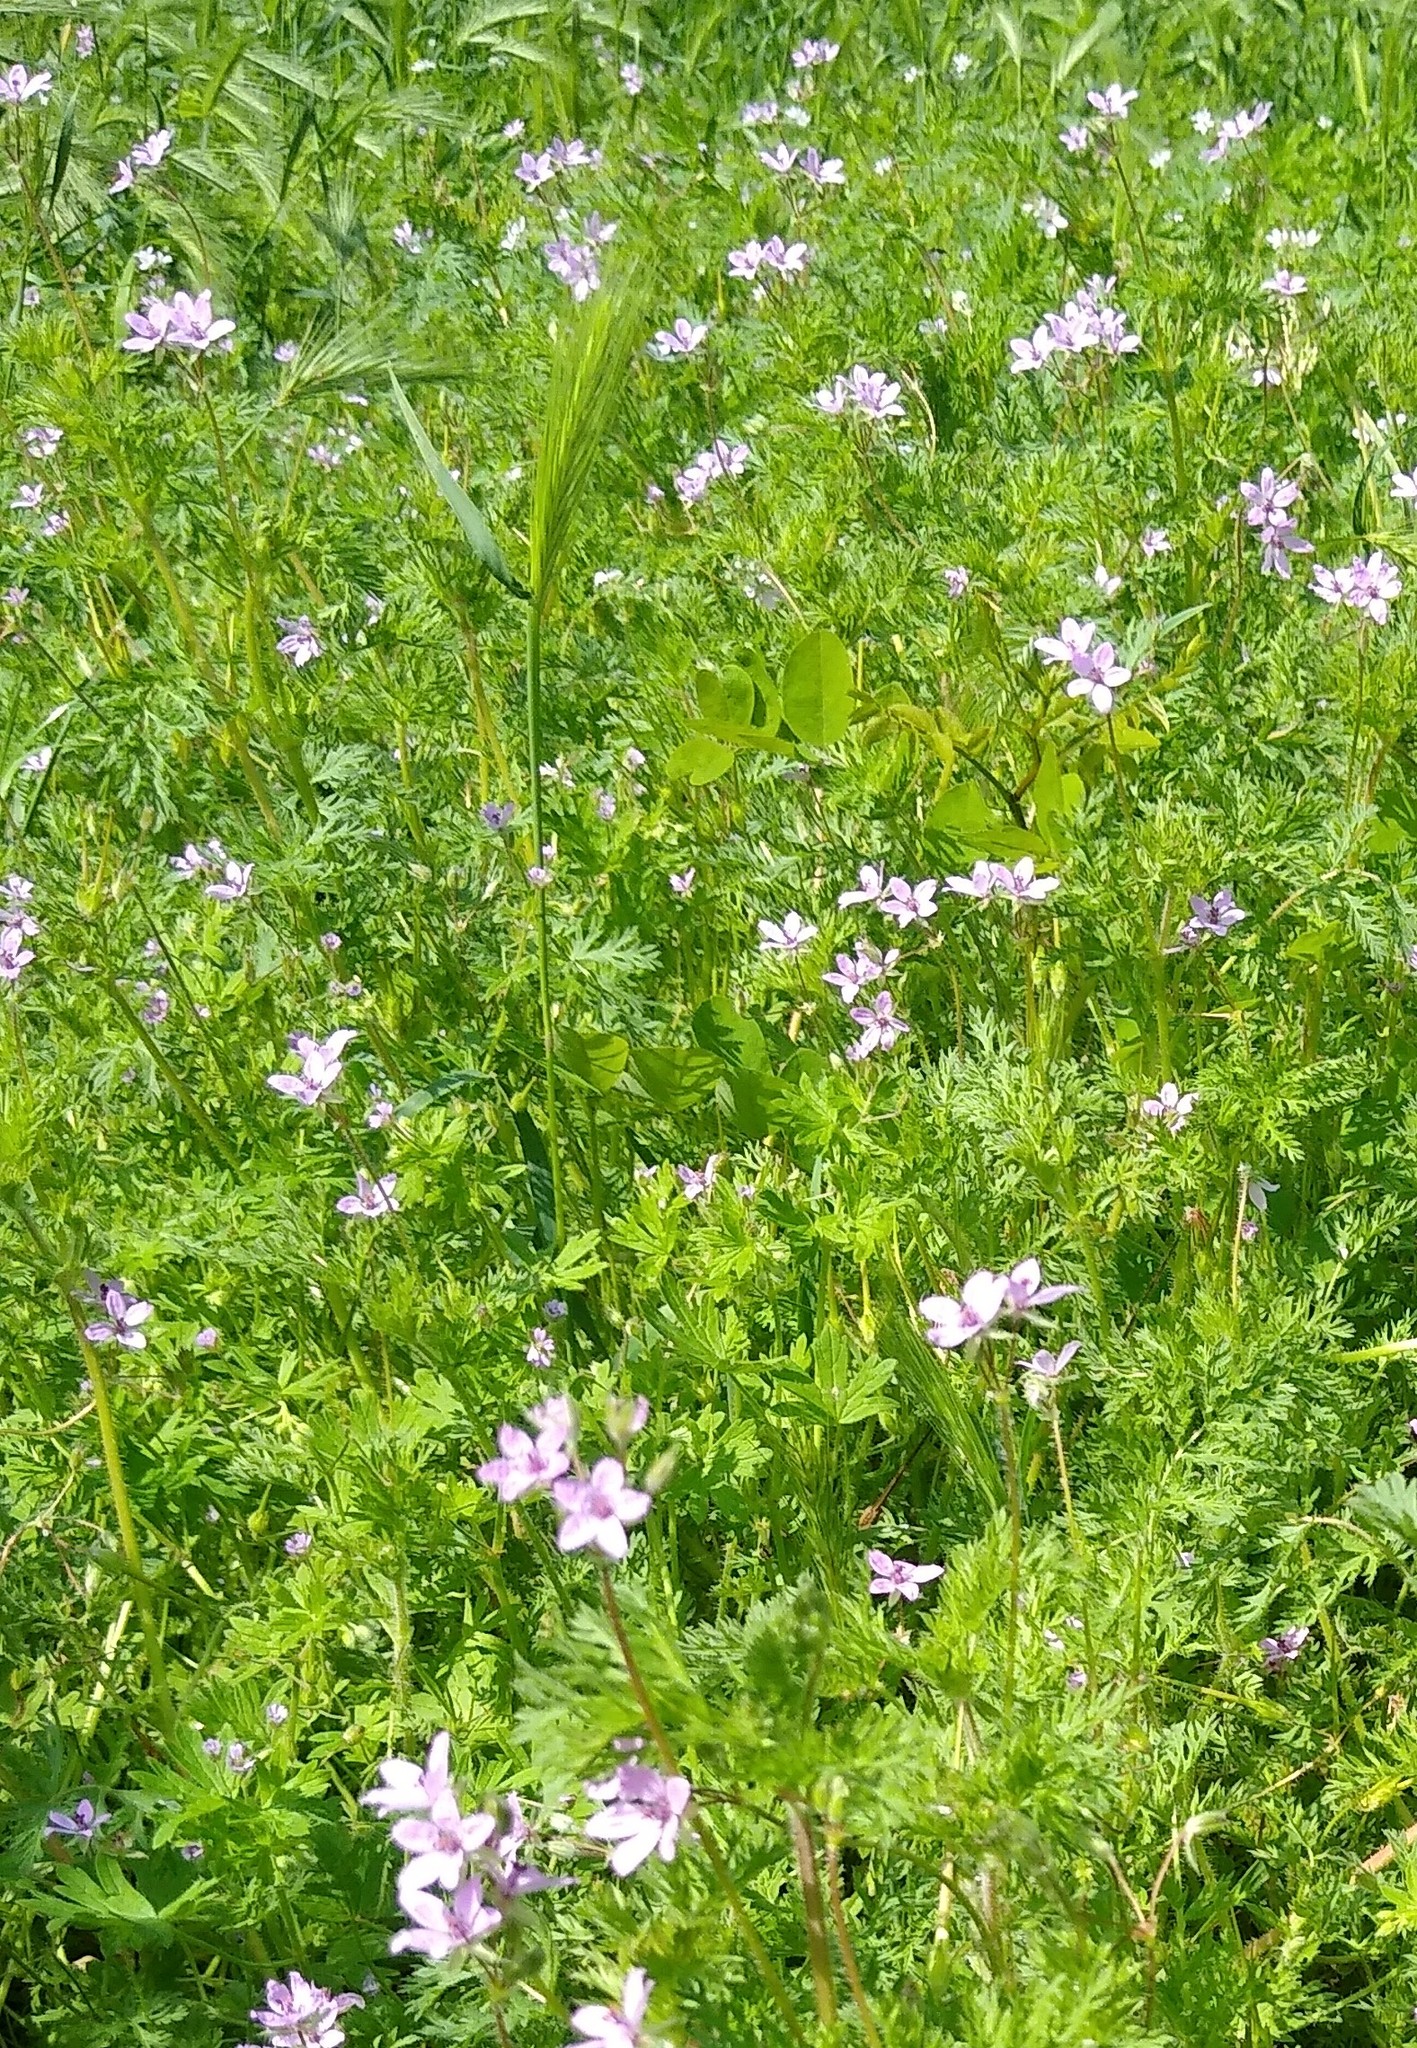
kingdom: Plantae
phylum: Tracheophyta
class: Magnoliopsida
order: Geraniales
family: Geraniaceae
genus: Erodium
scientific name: Erodium cicutarium
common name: Common stork's-bill
